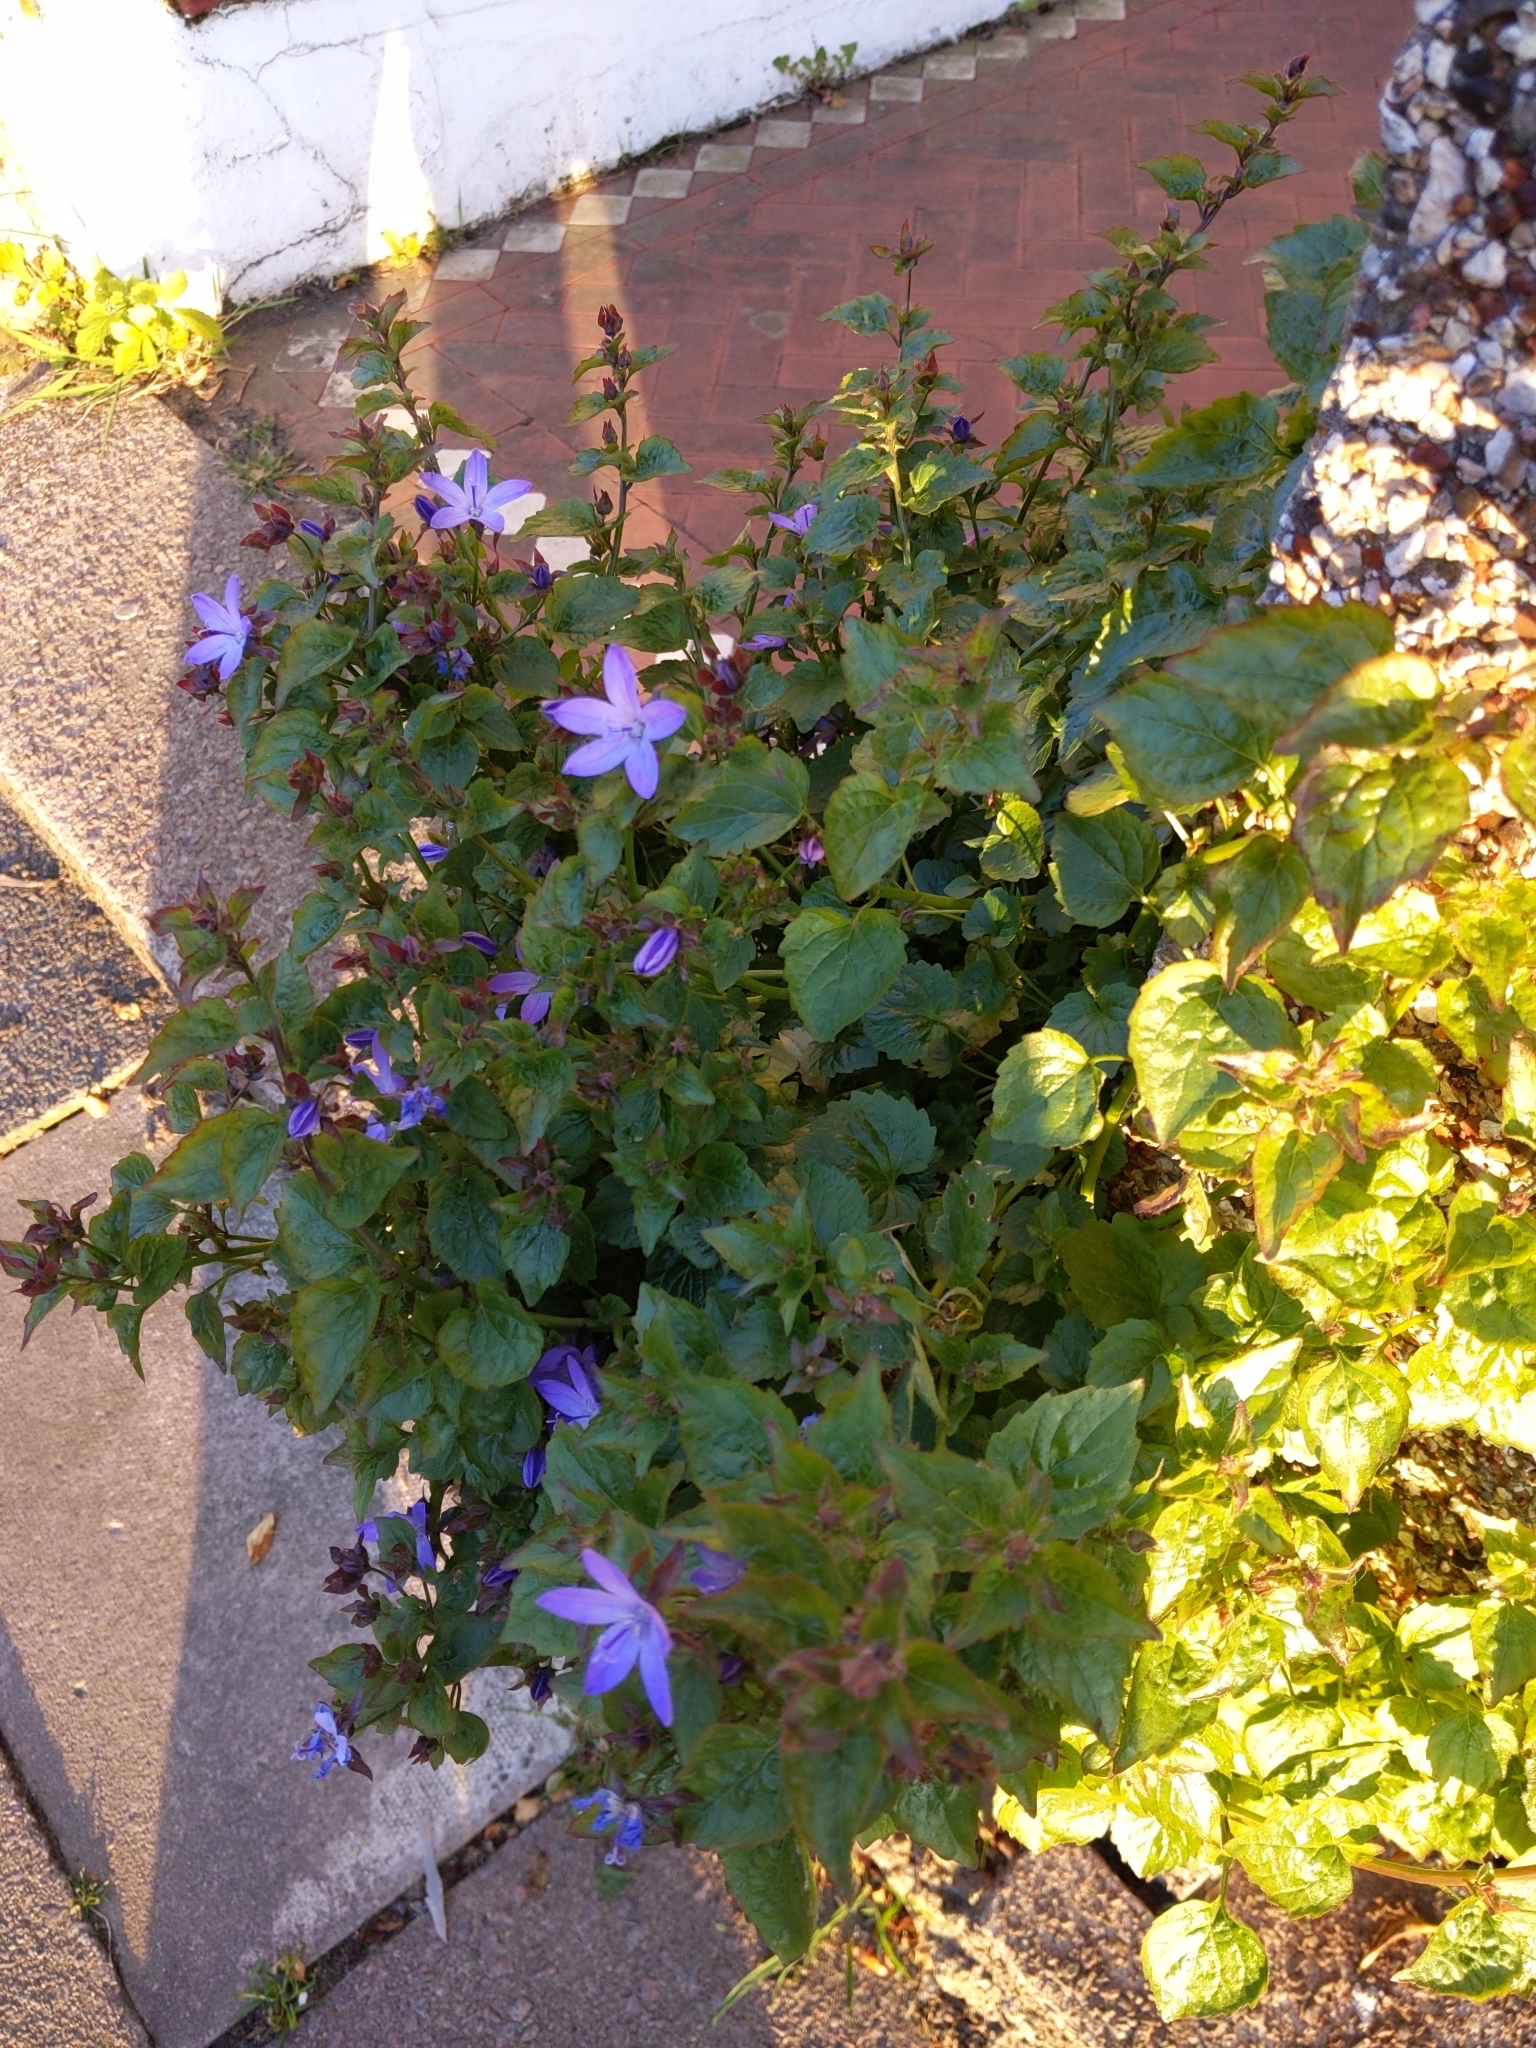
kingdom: Plantae
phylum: Tracheophyta
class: Magnoliopsida
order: Asterales
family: Campanulaceae
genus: Campanula
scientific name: Campanula poscharskyana
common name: Trailing bellflower
